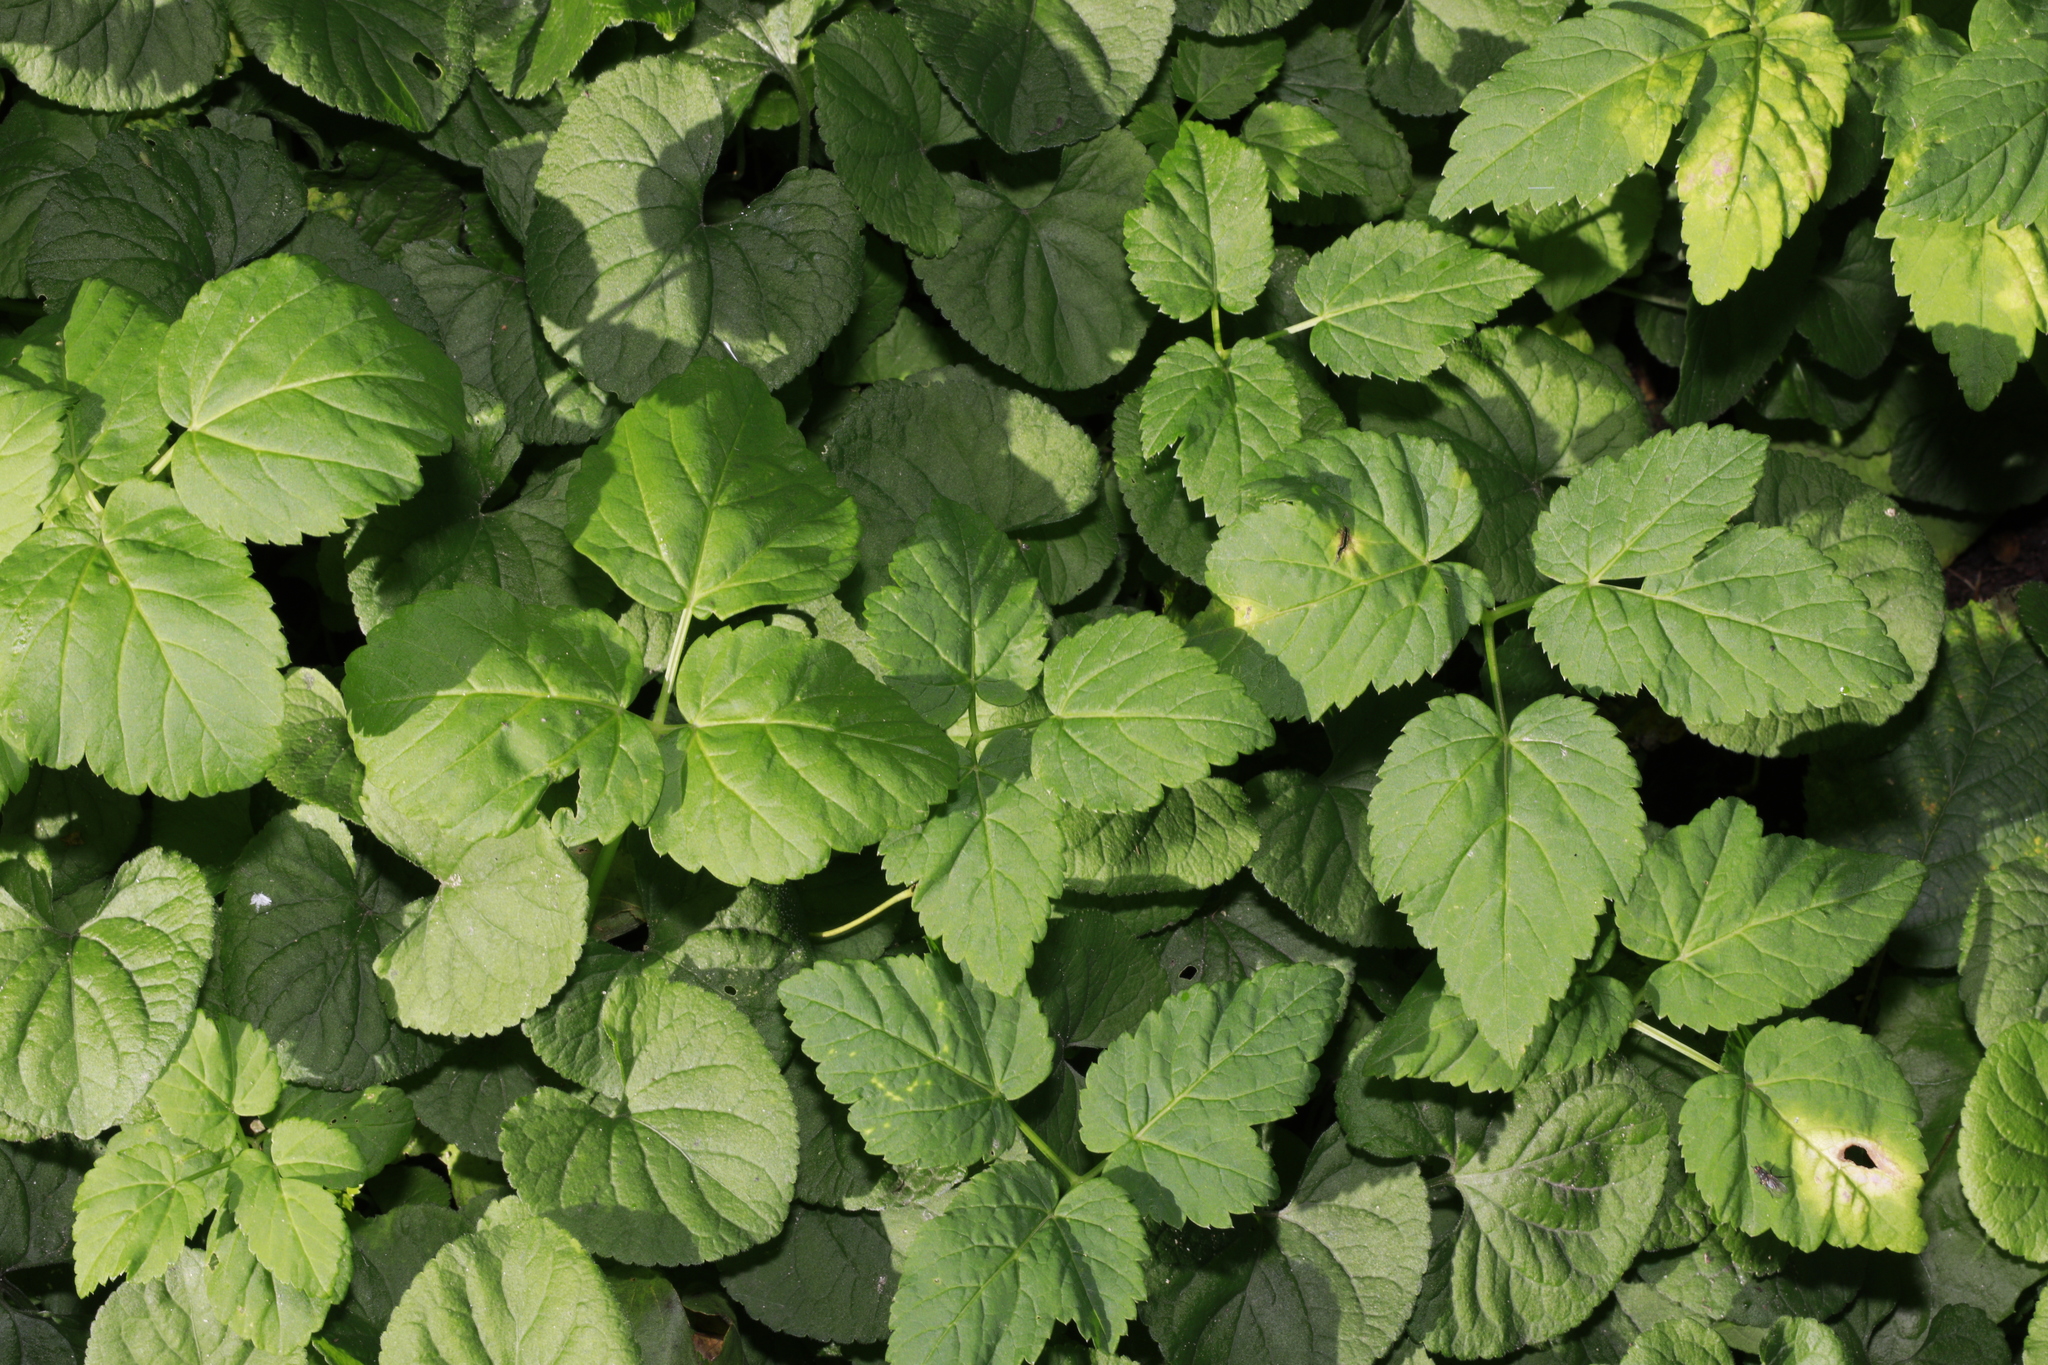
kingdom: Plantae
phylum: Tracheophyta
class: Magnoliopsida
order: Apiales
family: Apiaceae
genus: Aegopodium
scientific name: Aegopodium podagraria
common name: Ground-elder
